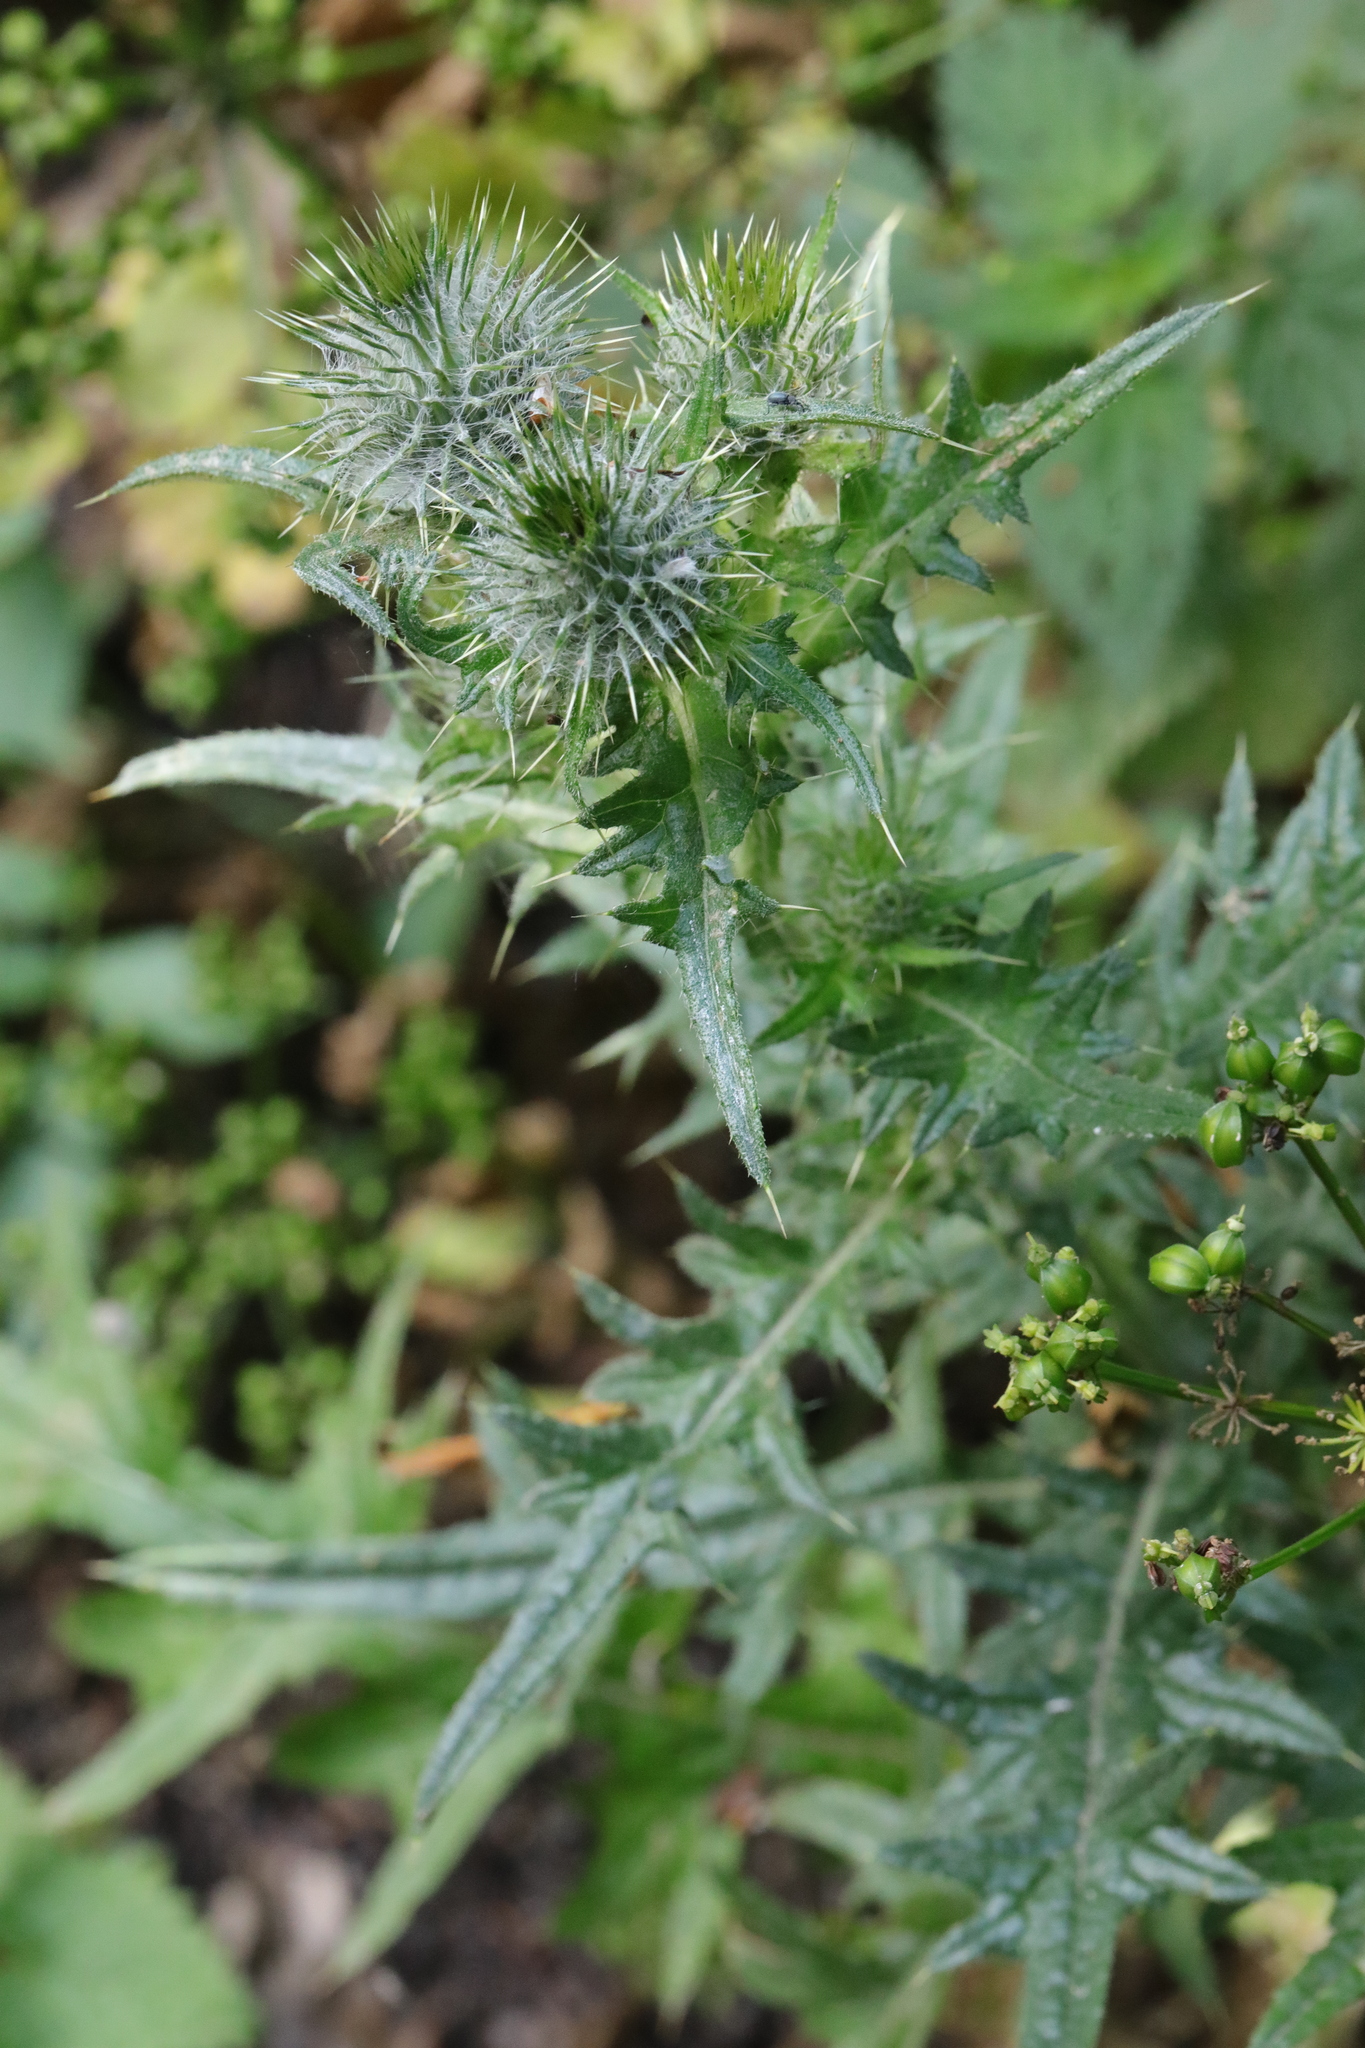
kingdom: Plantae
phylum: Tracheophyta
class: Magnoliopsida
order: Asterales
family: Asteraceae
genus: Cirsium
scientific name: Cirsium vulgare
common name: Bull thistle
